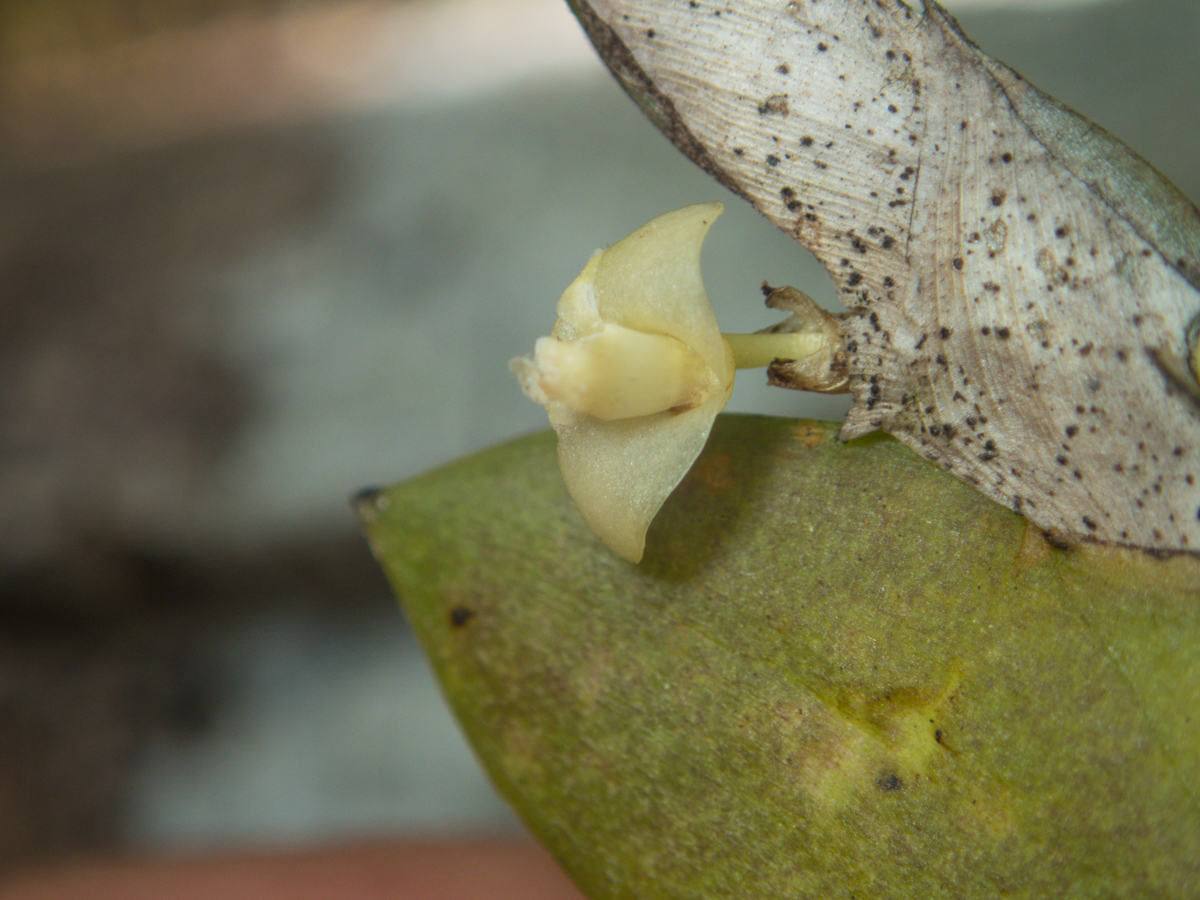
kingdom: Plantae
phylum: Tracheophyta
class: Liliopsida
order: Asparagales
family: Orchidaceae
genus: Dendrobium
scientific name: Dendrobium aloifolium
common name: Aloe-like dendrobium
